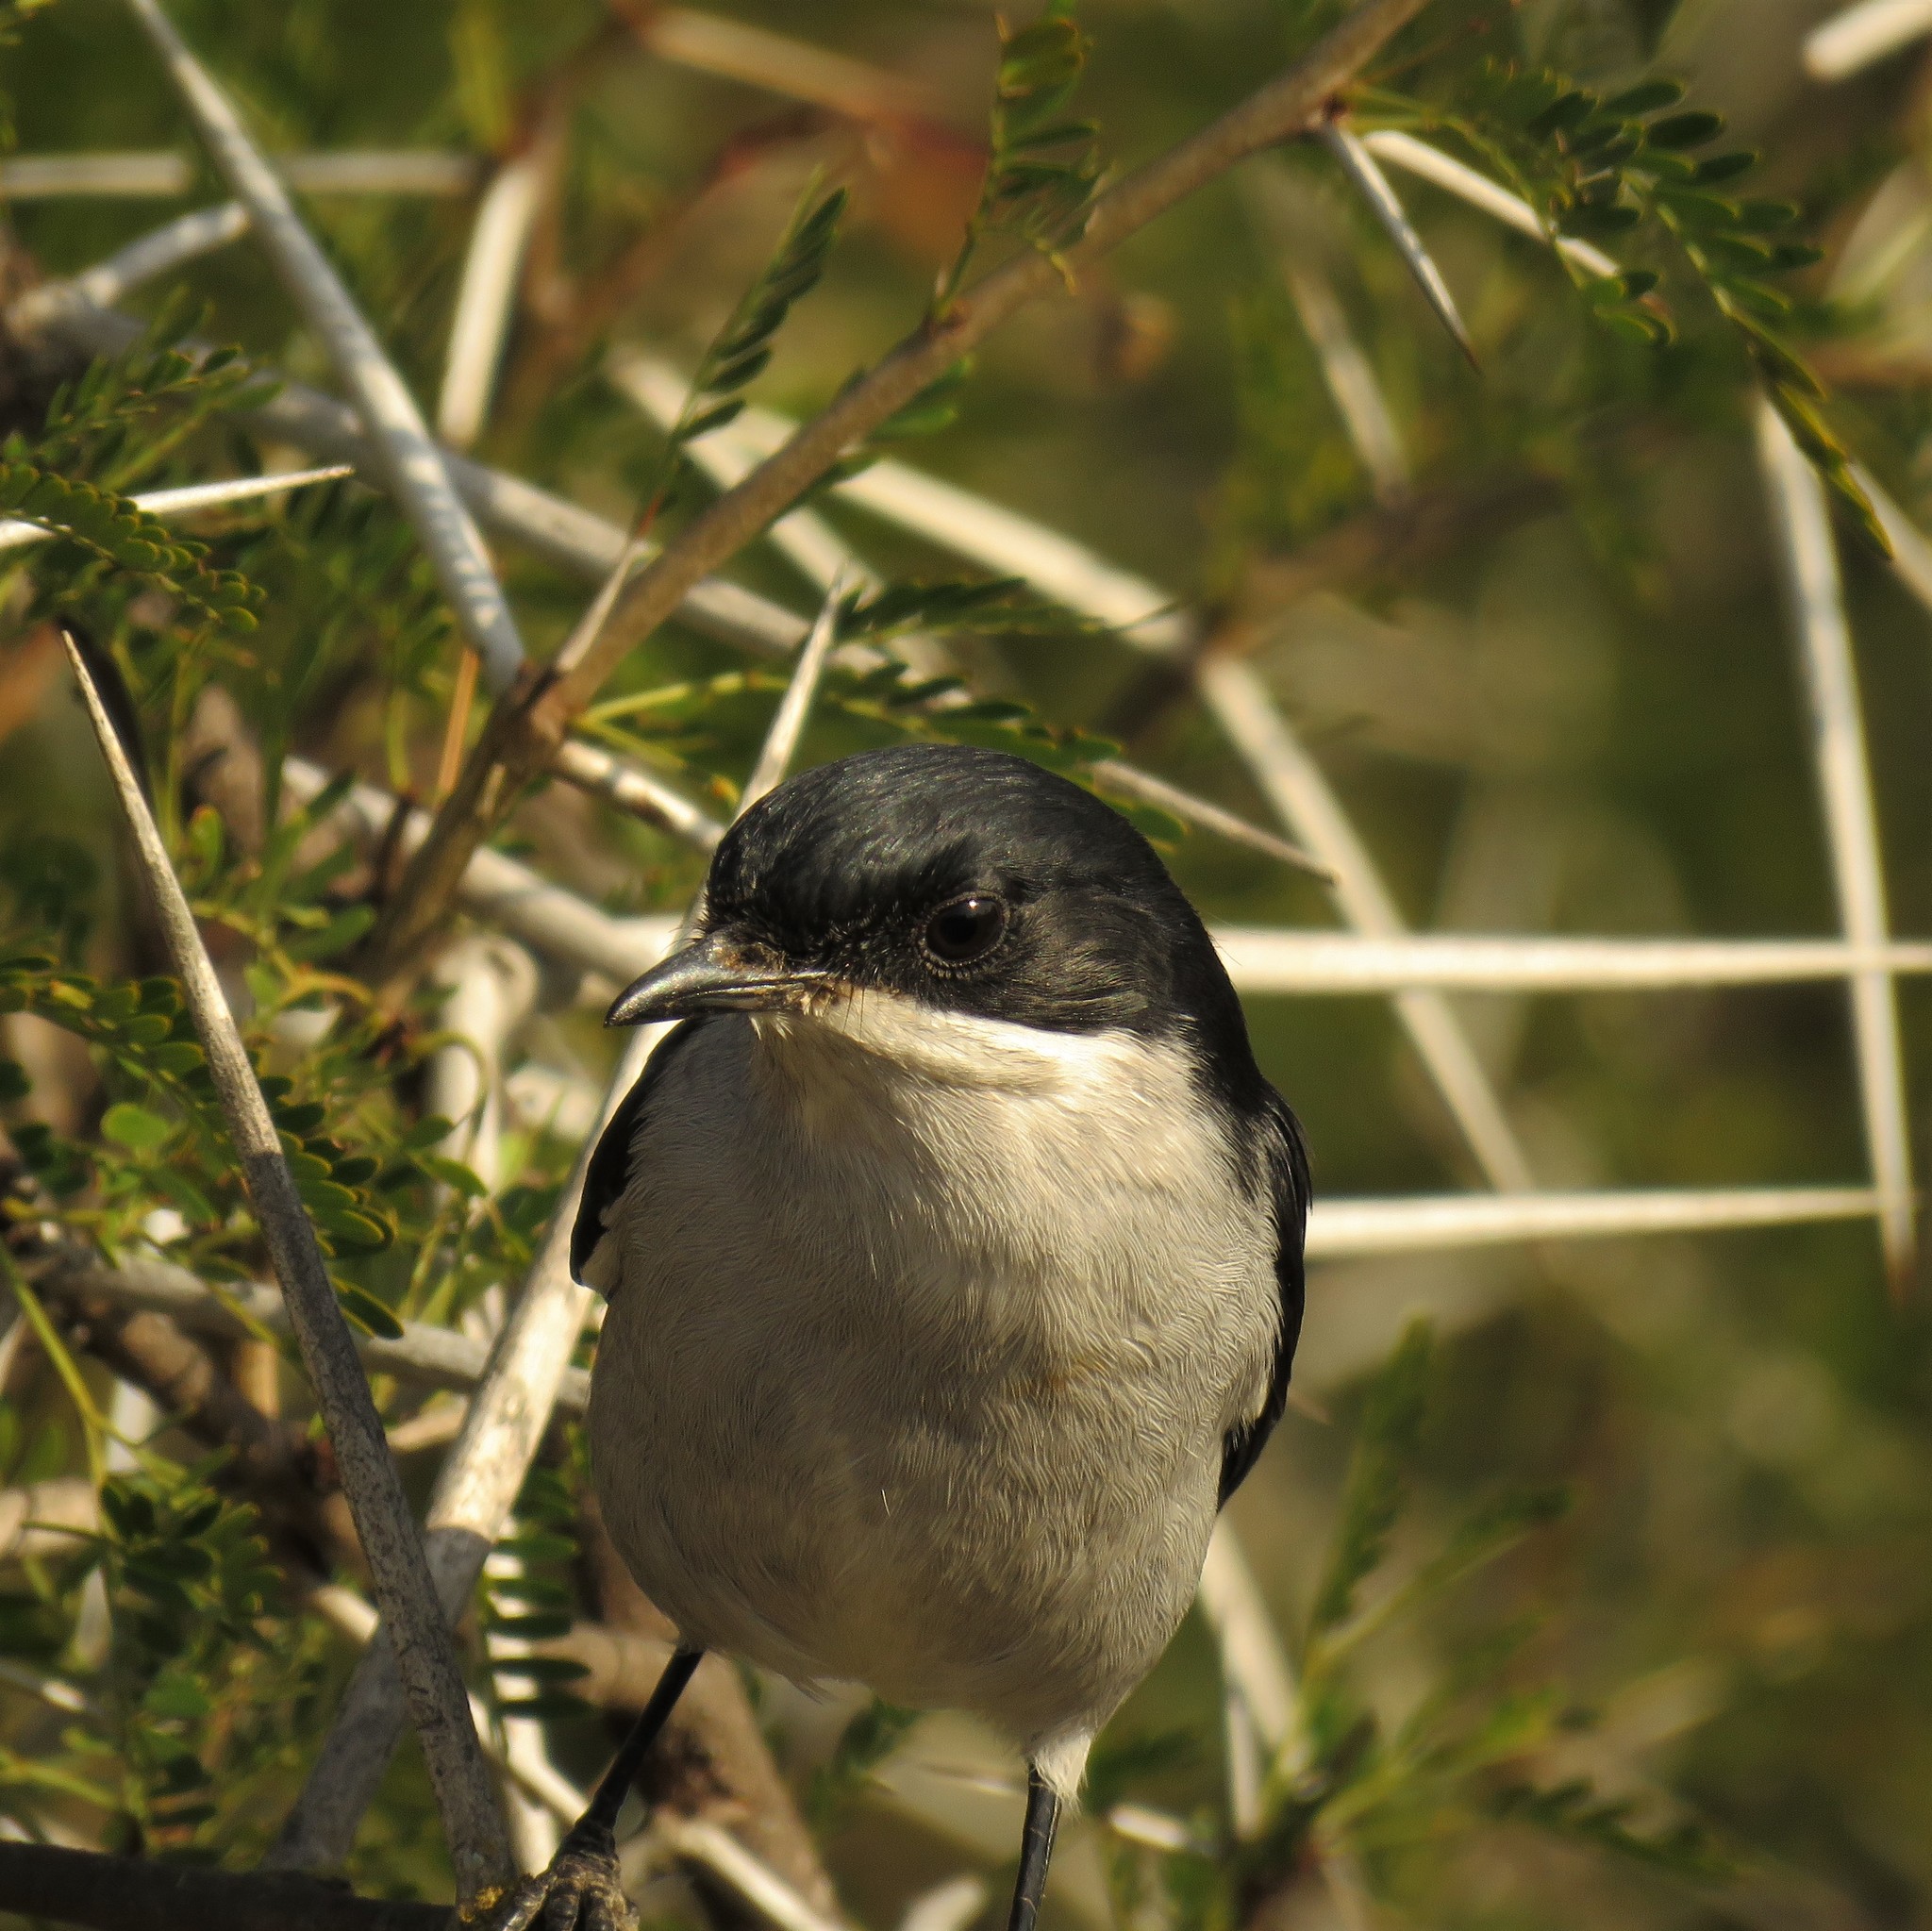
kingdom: Animalia
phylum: Chordata
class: Aves
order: Passeriformes
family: Muscicapidae
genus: Sigelus
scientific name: Sigelus silens
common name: Fiscal flycatcher
